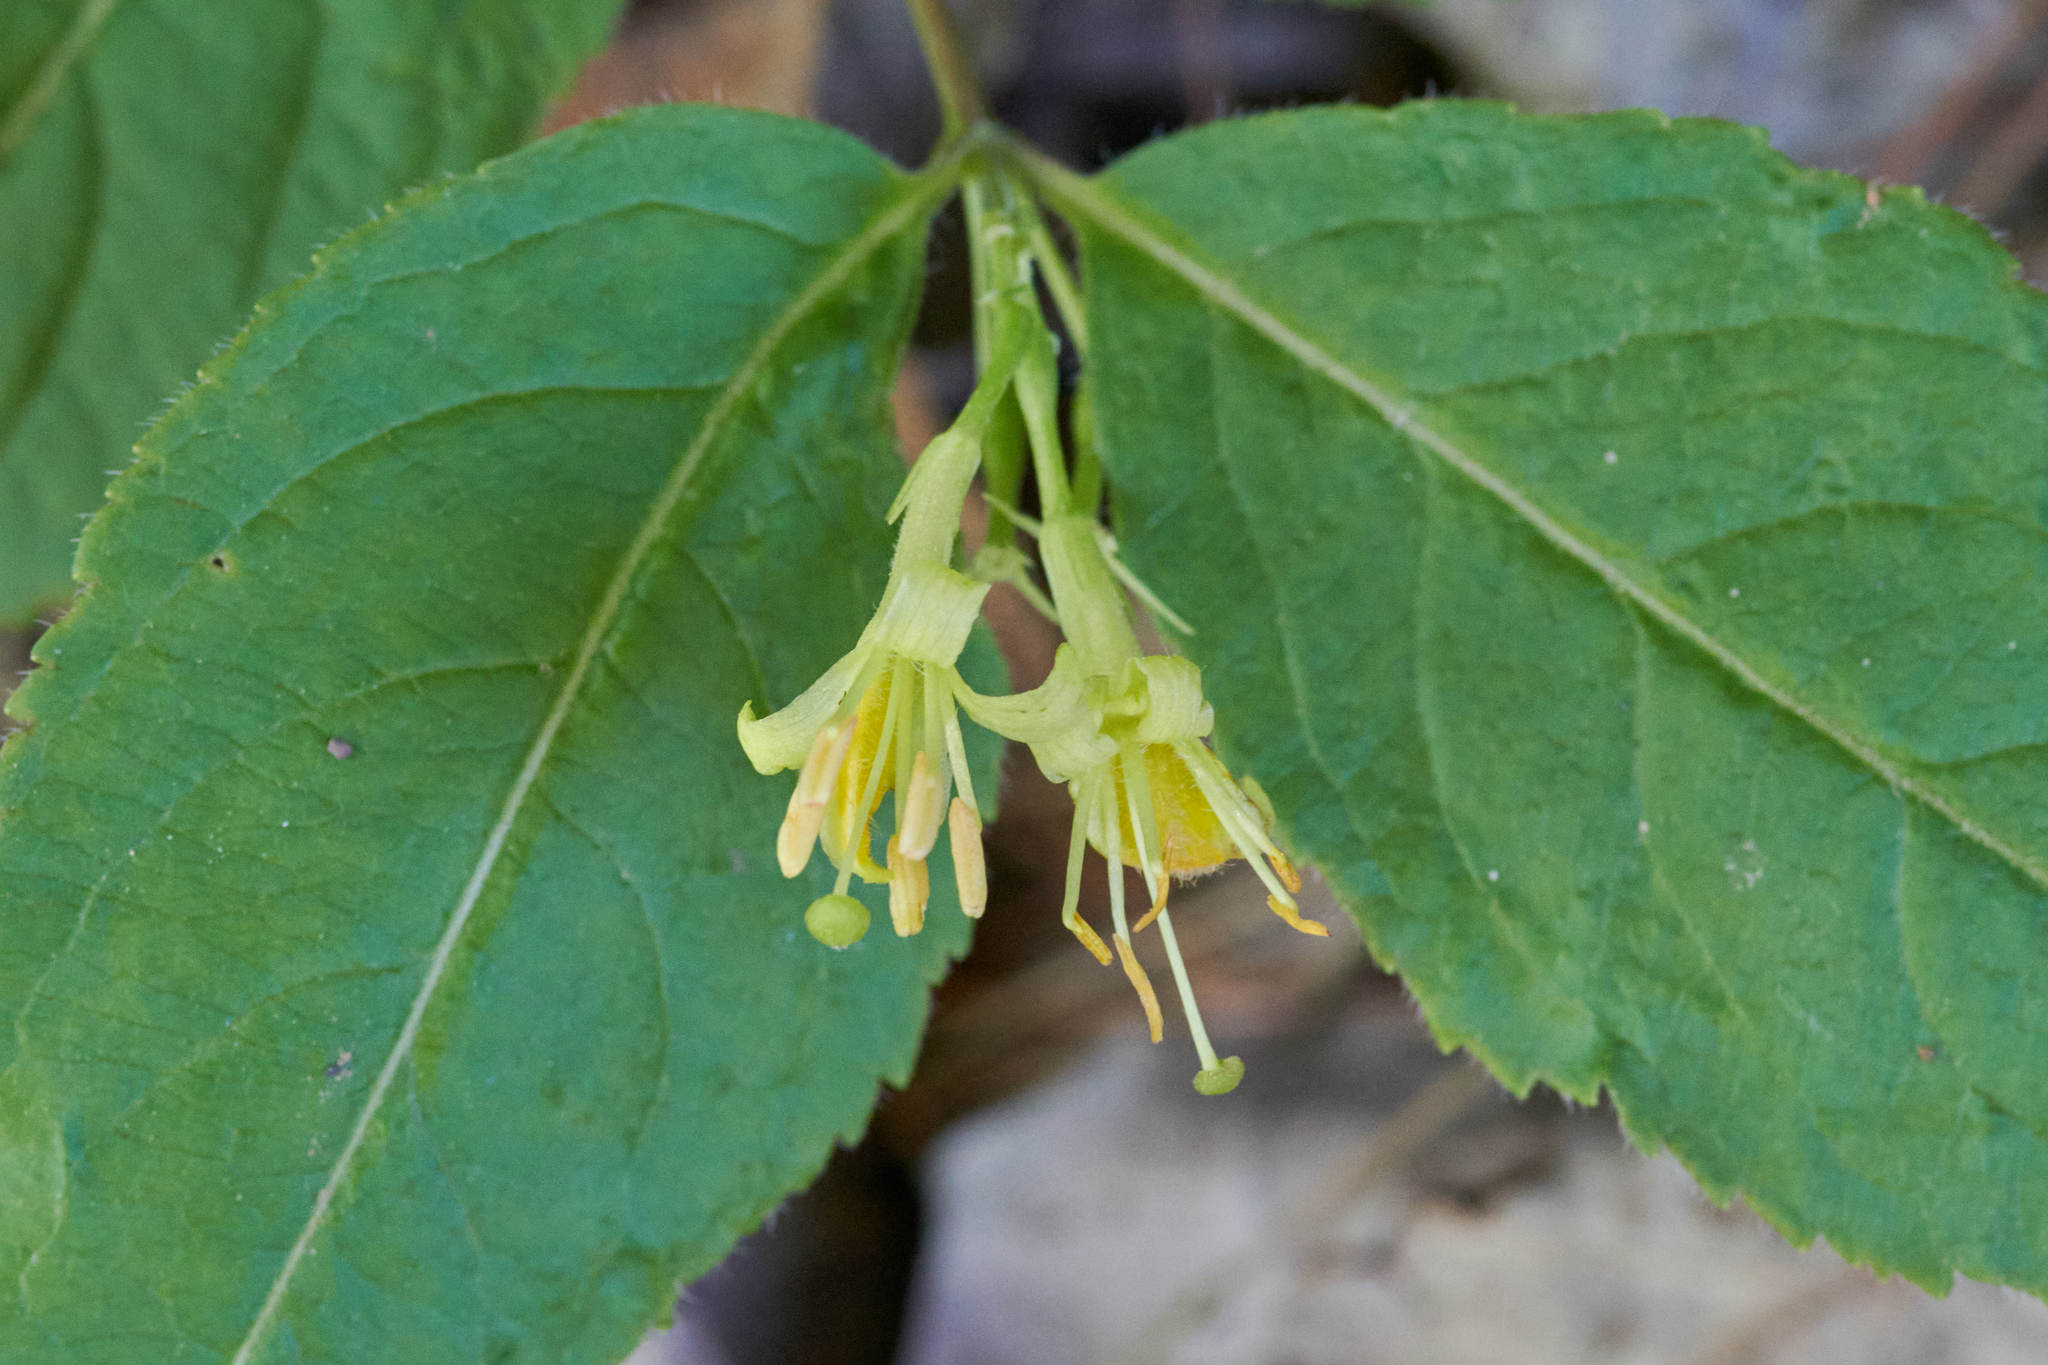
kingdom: Plantae
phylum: Tracheophyta
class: Magnoliopsida
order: Dipsacales
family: Caprifoliaceae
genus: Diervilla
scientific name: Diervilla lonicera
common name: Bush-honeysuckle
